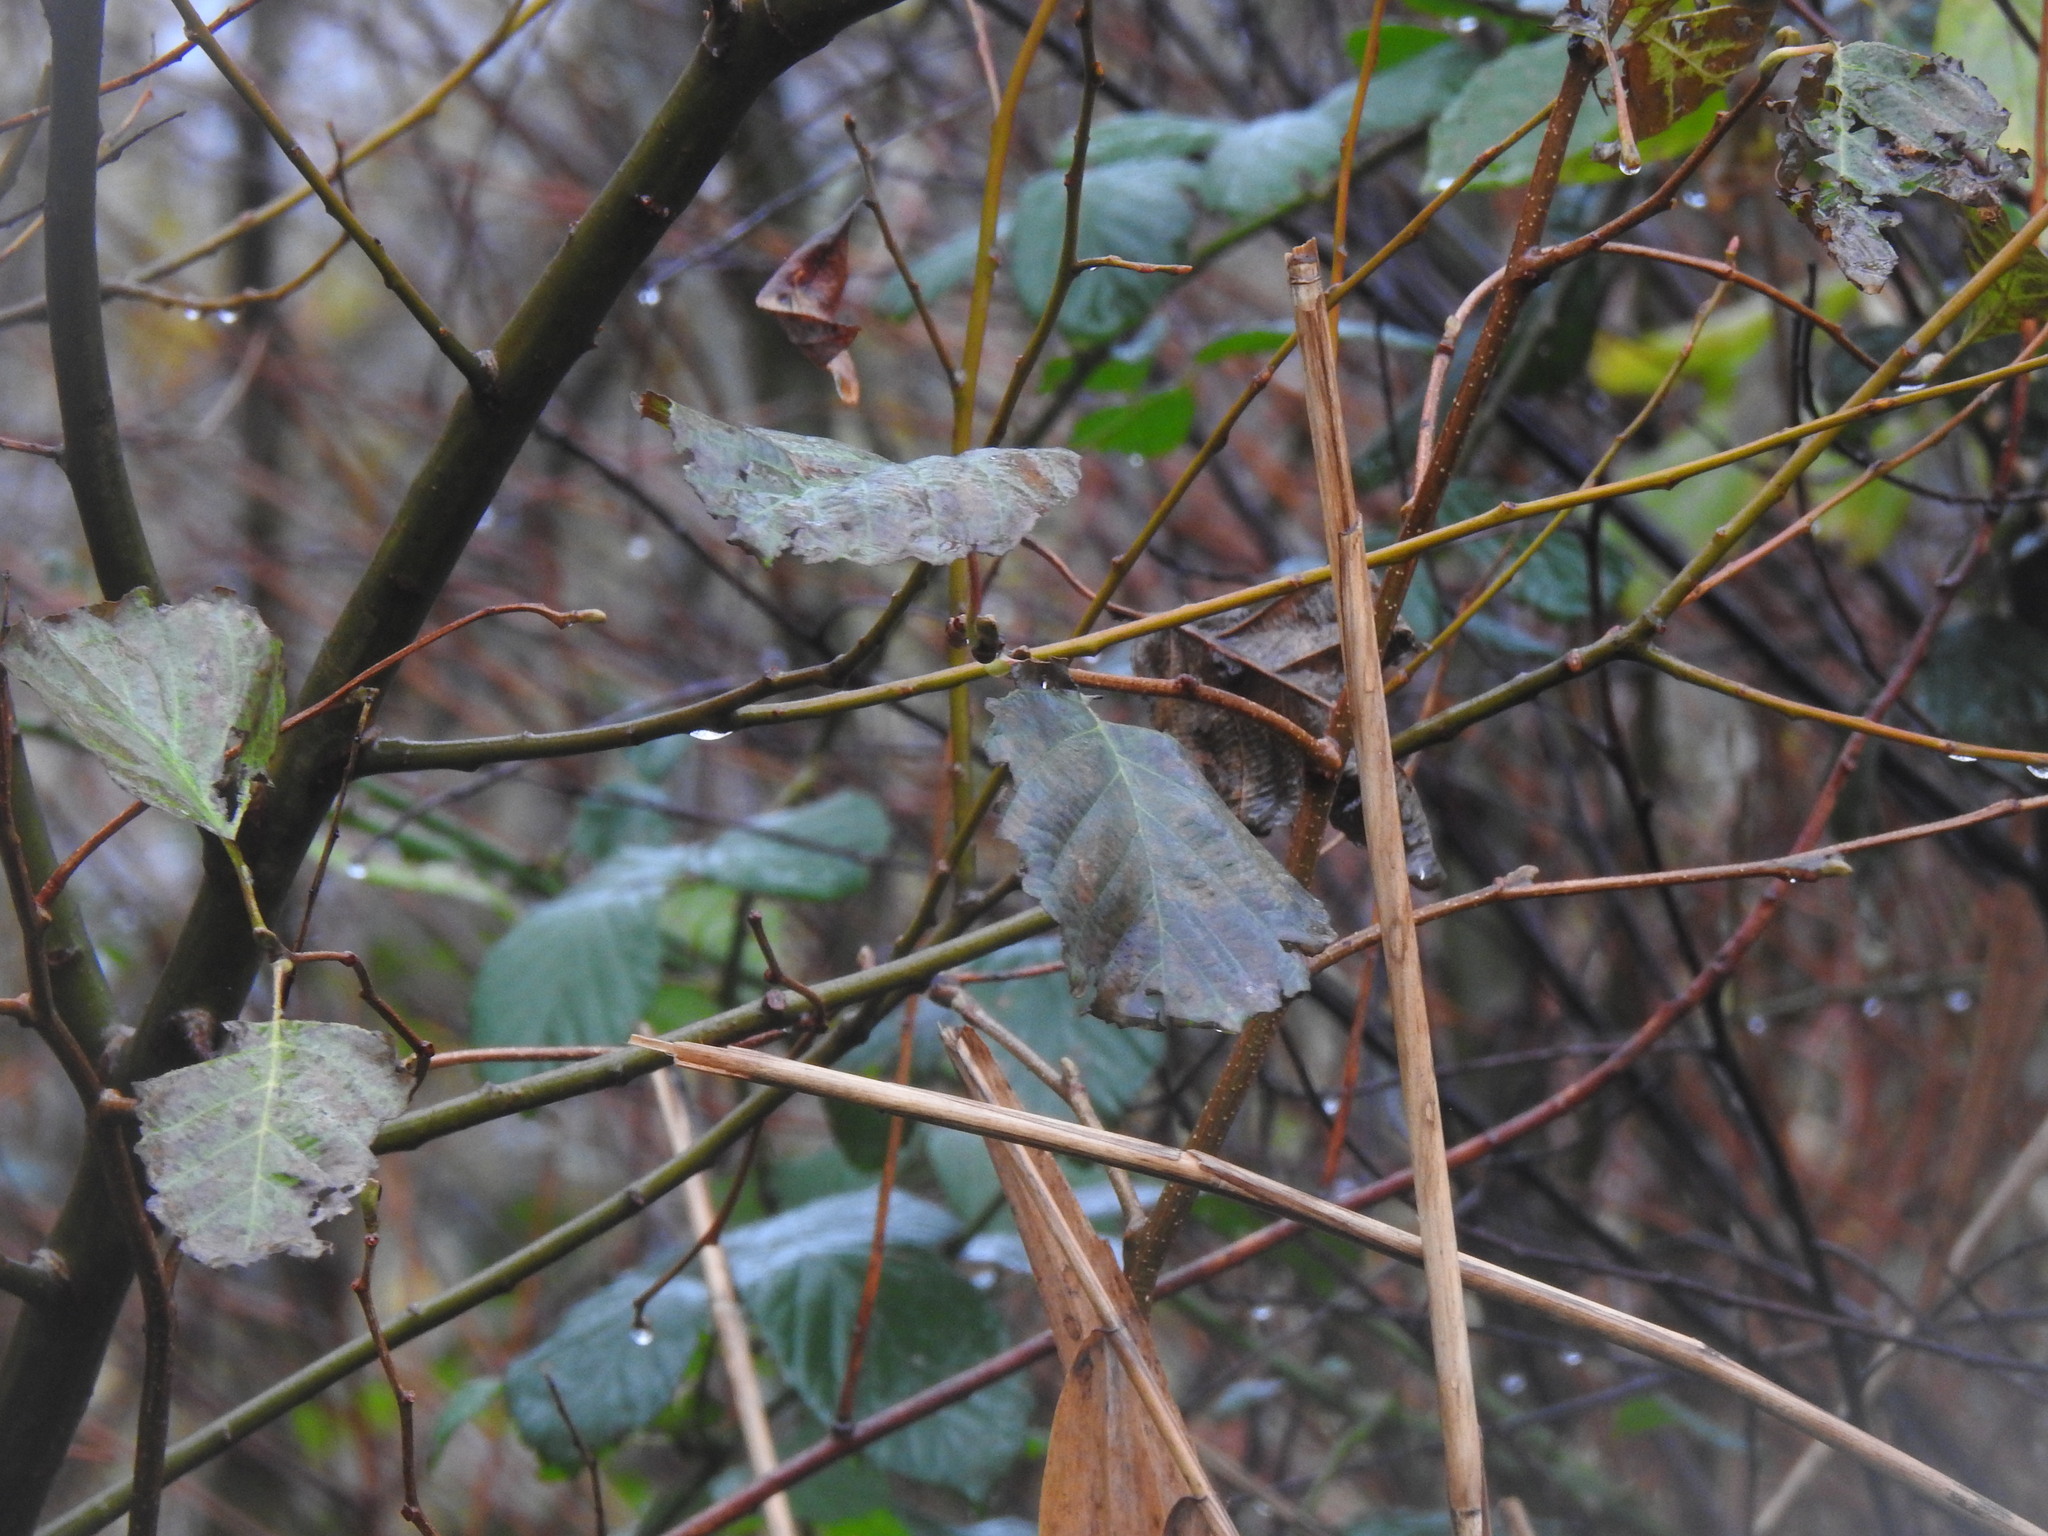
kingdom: Plantae
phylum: Tracheophyta
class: Magnoliopsida
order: Fagales
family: Betulaceae
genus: Alnus
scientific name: Alnus lusitanica
